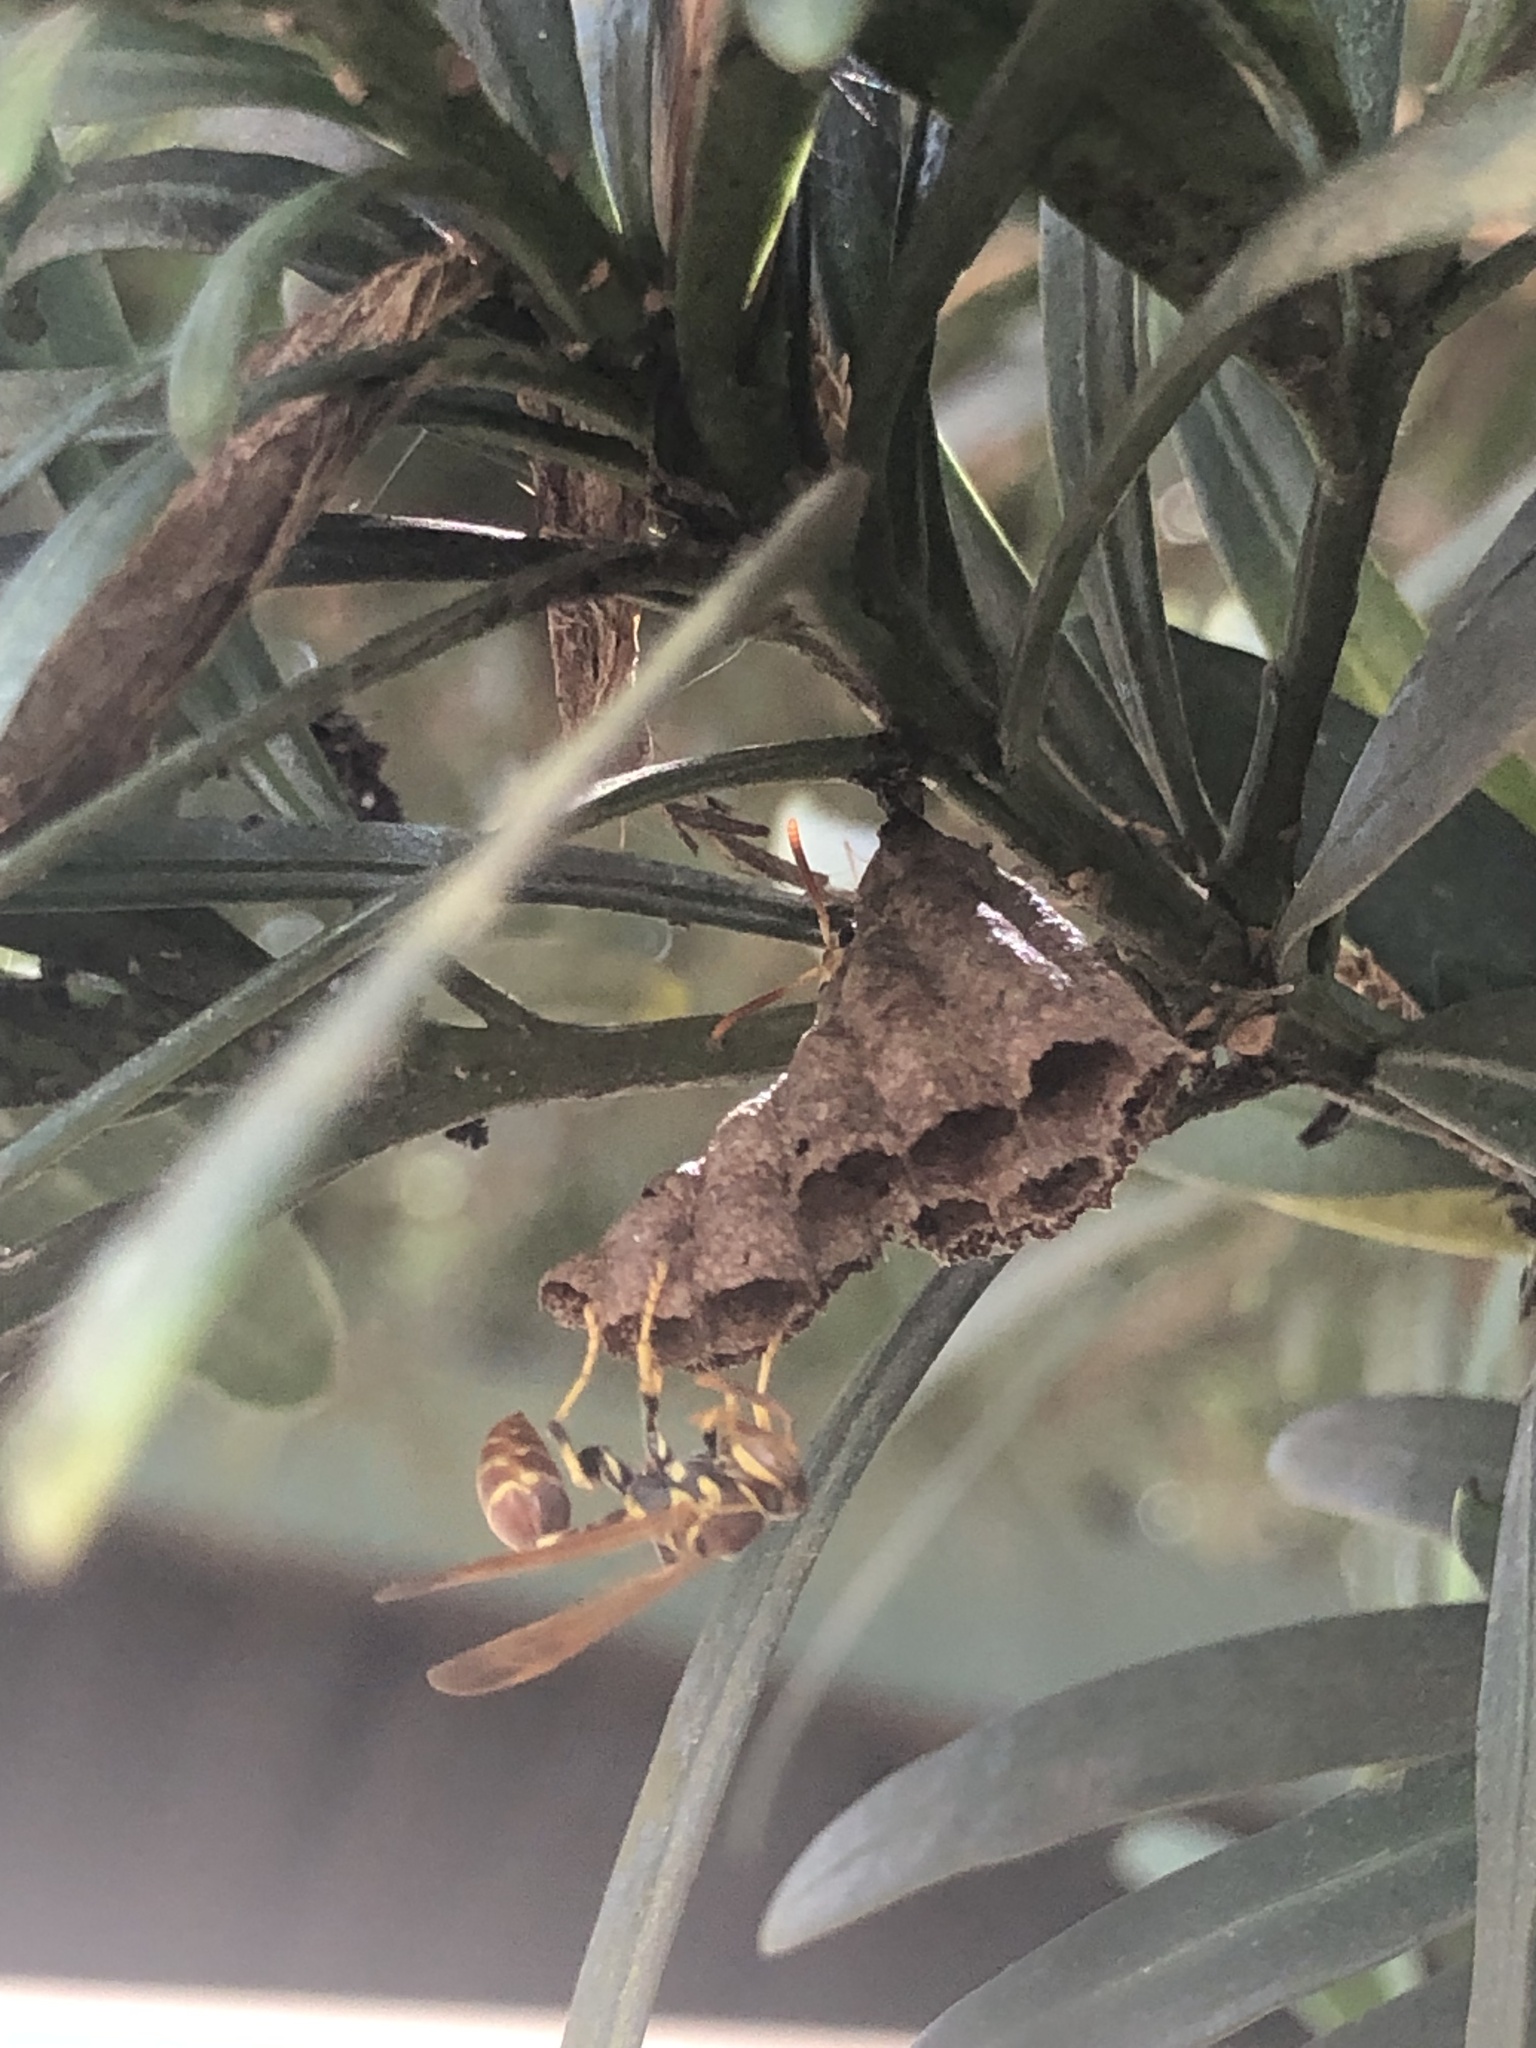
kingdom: Animalia
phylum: Arthropoda
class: Insecta
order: Hymenoptera
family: Vespidae
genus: Mischocyttarus
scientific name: Mischocyttarus mexicanus
